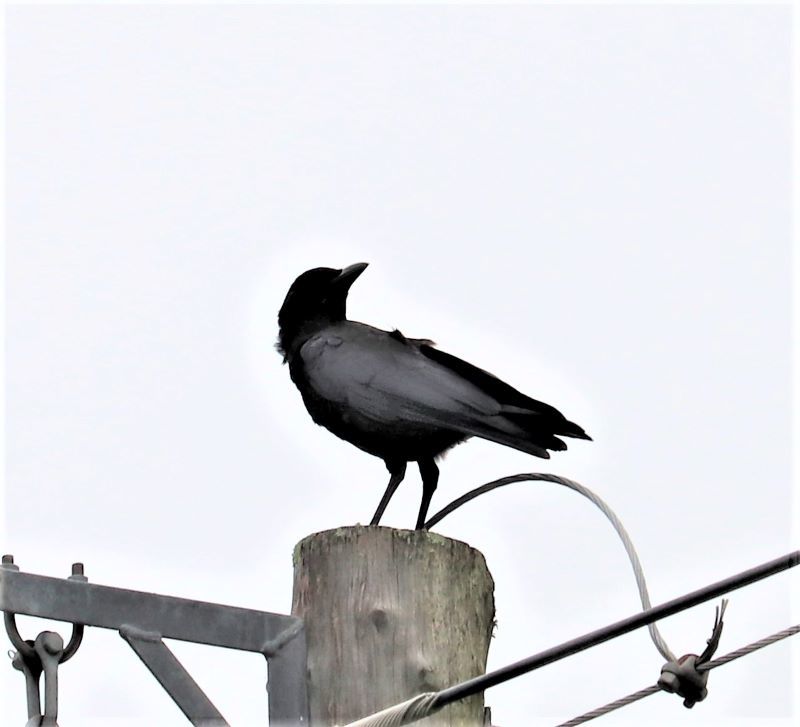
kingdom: Animalia
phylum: Chordata
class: Aves
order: Passeriformes
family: Corvidae
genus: Corvus
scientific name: Corvus capensis
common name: Cape crow
